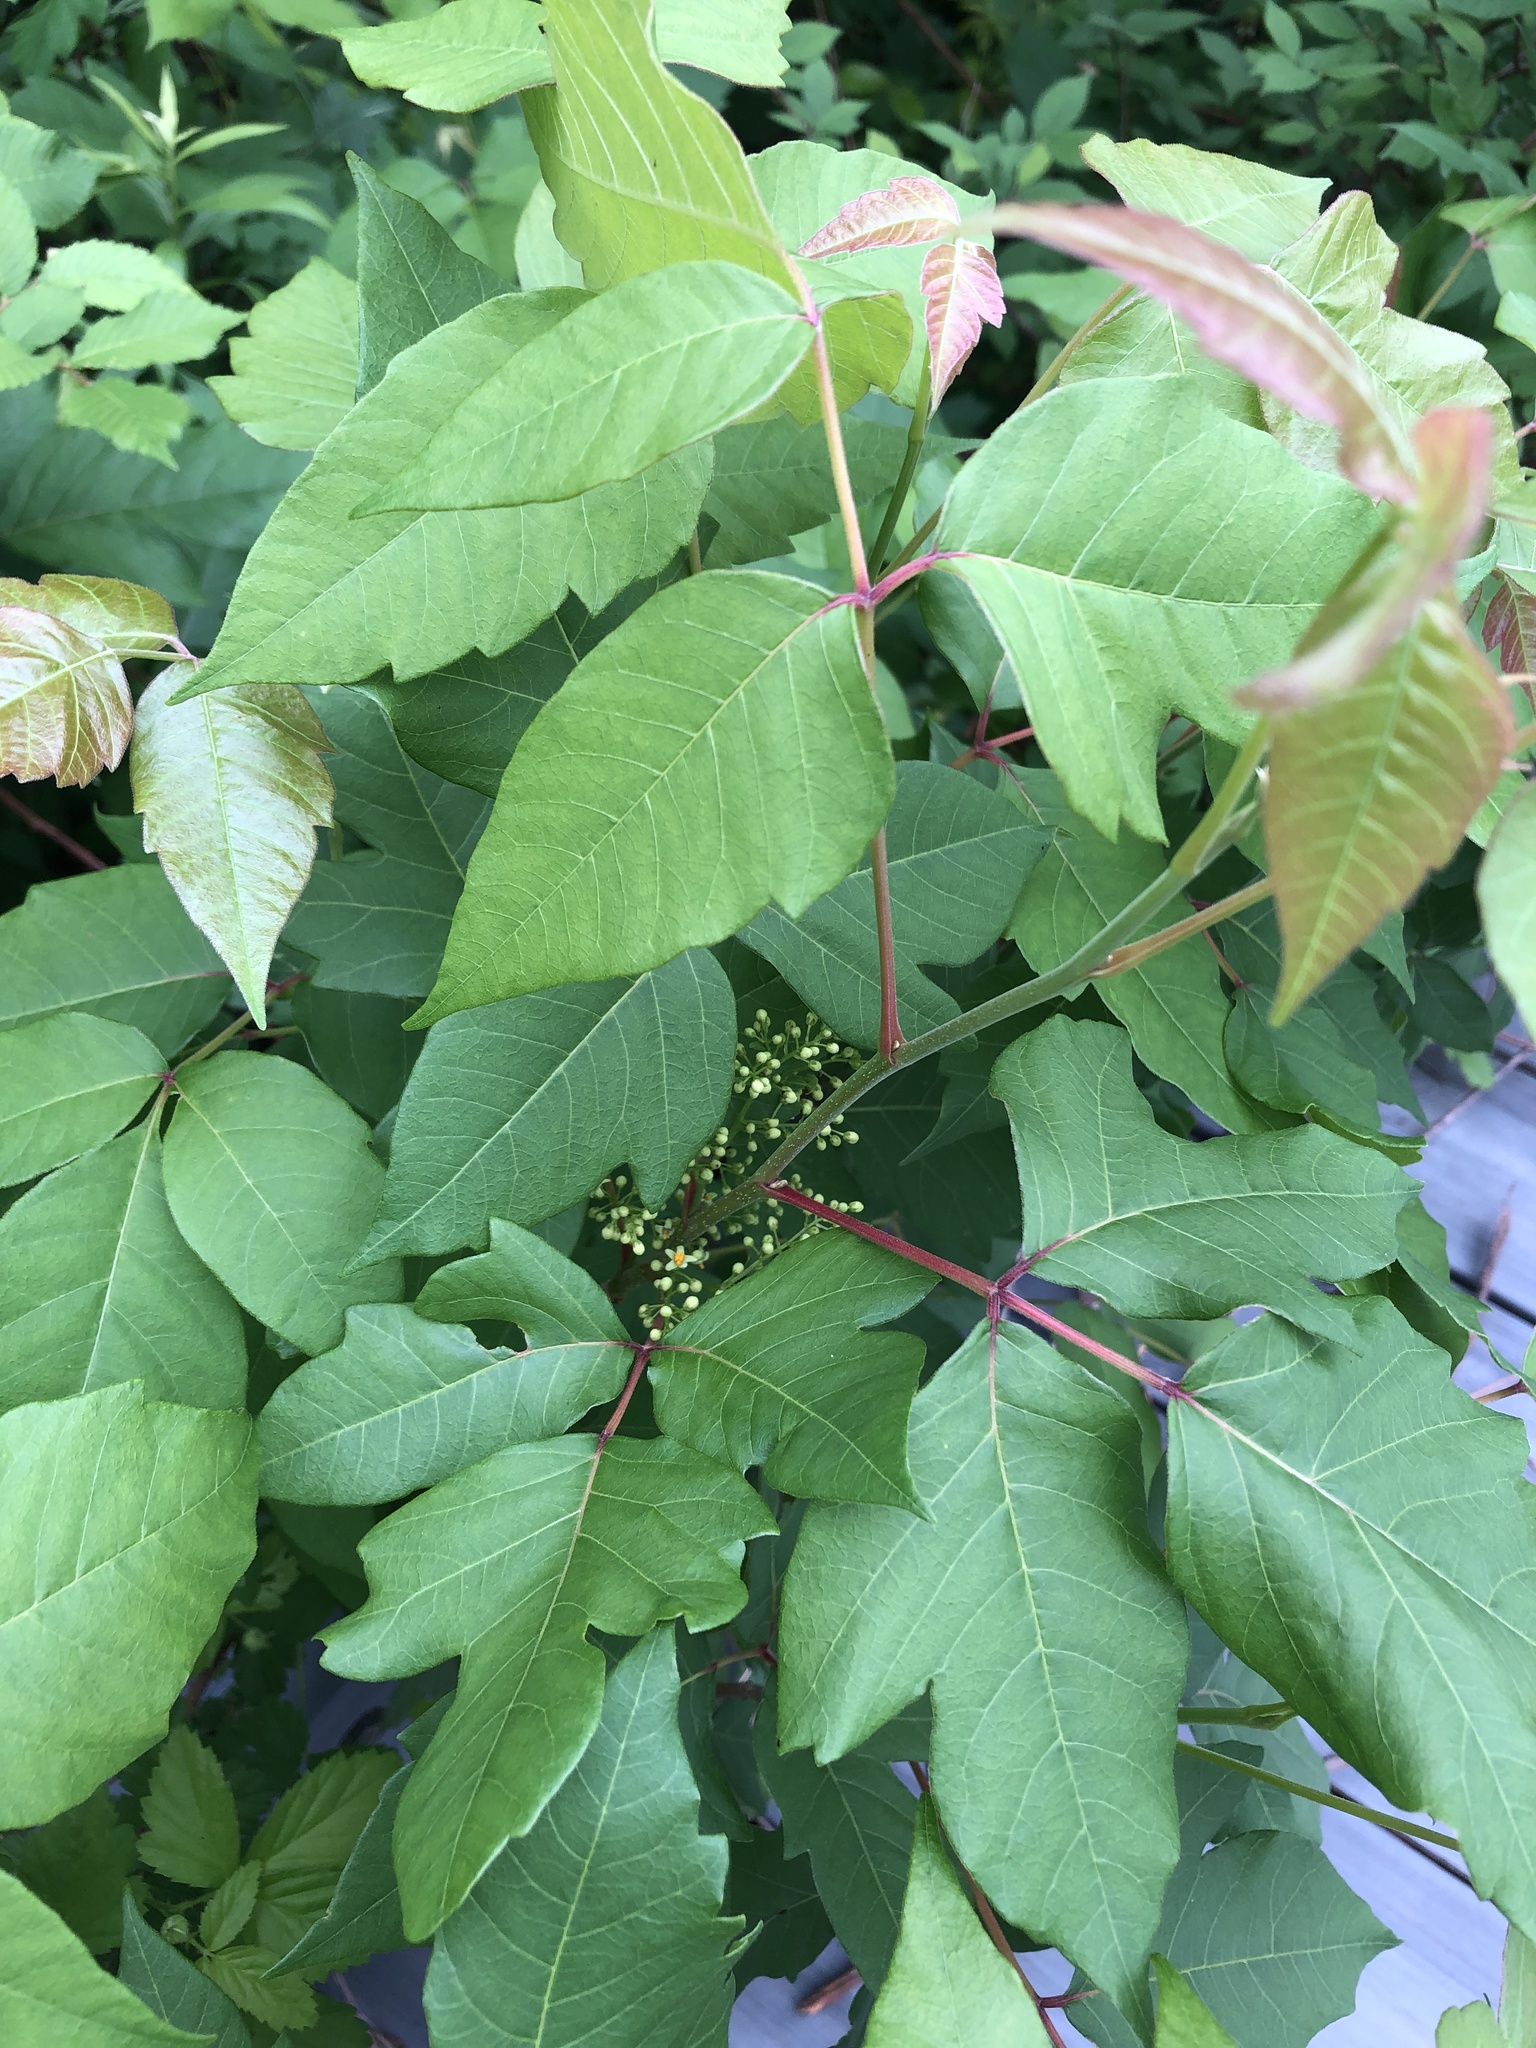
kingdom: Plantae
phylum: Tracheophyta
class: Magnoliopsida
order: Sapindales
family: Anacardiaceae
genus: Toxicodendron
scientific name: Toxicodendron radicans
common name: Poison ivy
